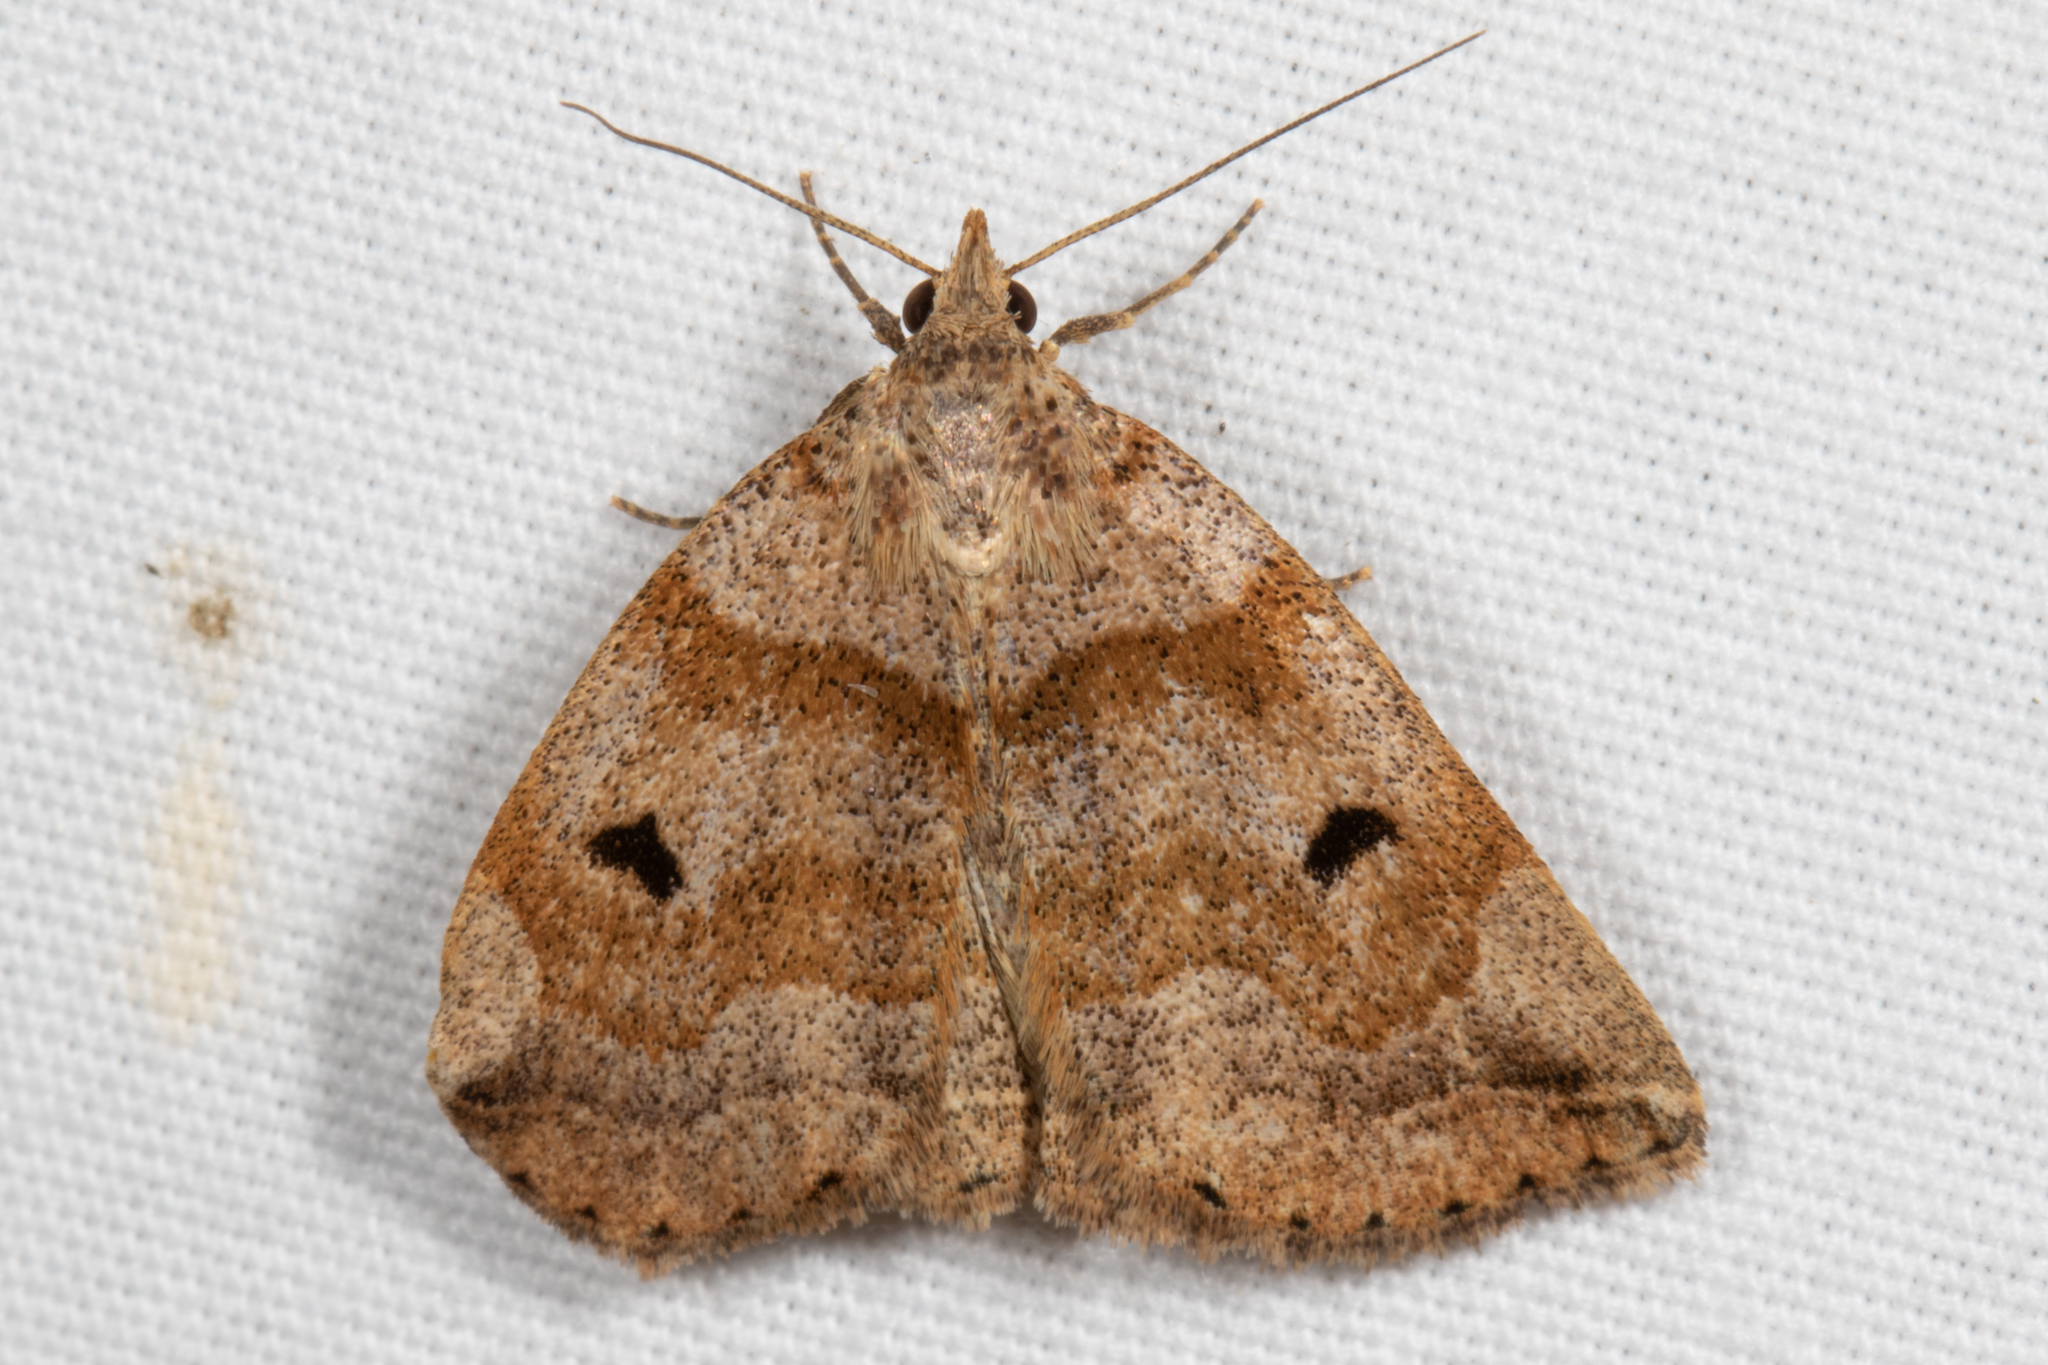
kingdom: Animalia
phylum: Arthropoda
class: Insecta
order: Lepidoptera
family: Erebidae
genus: Zanclognatha
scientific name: Zanclognatha laevigata
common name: Variable fan-foot
